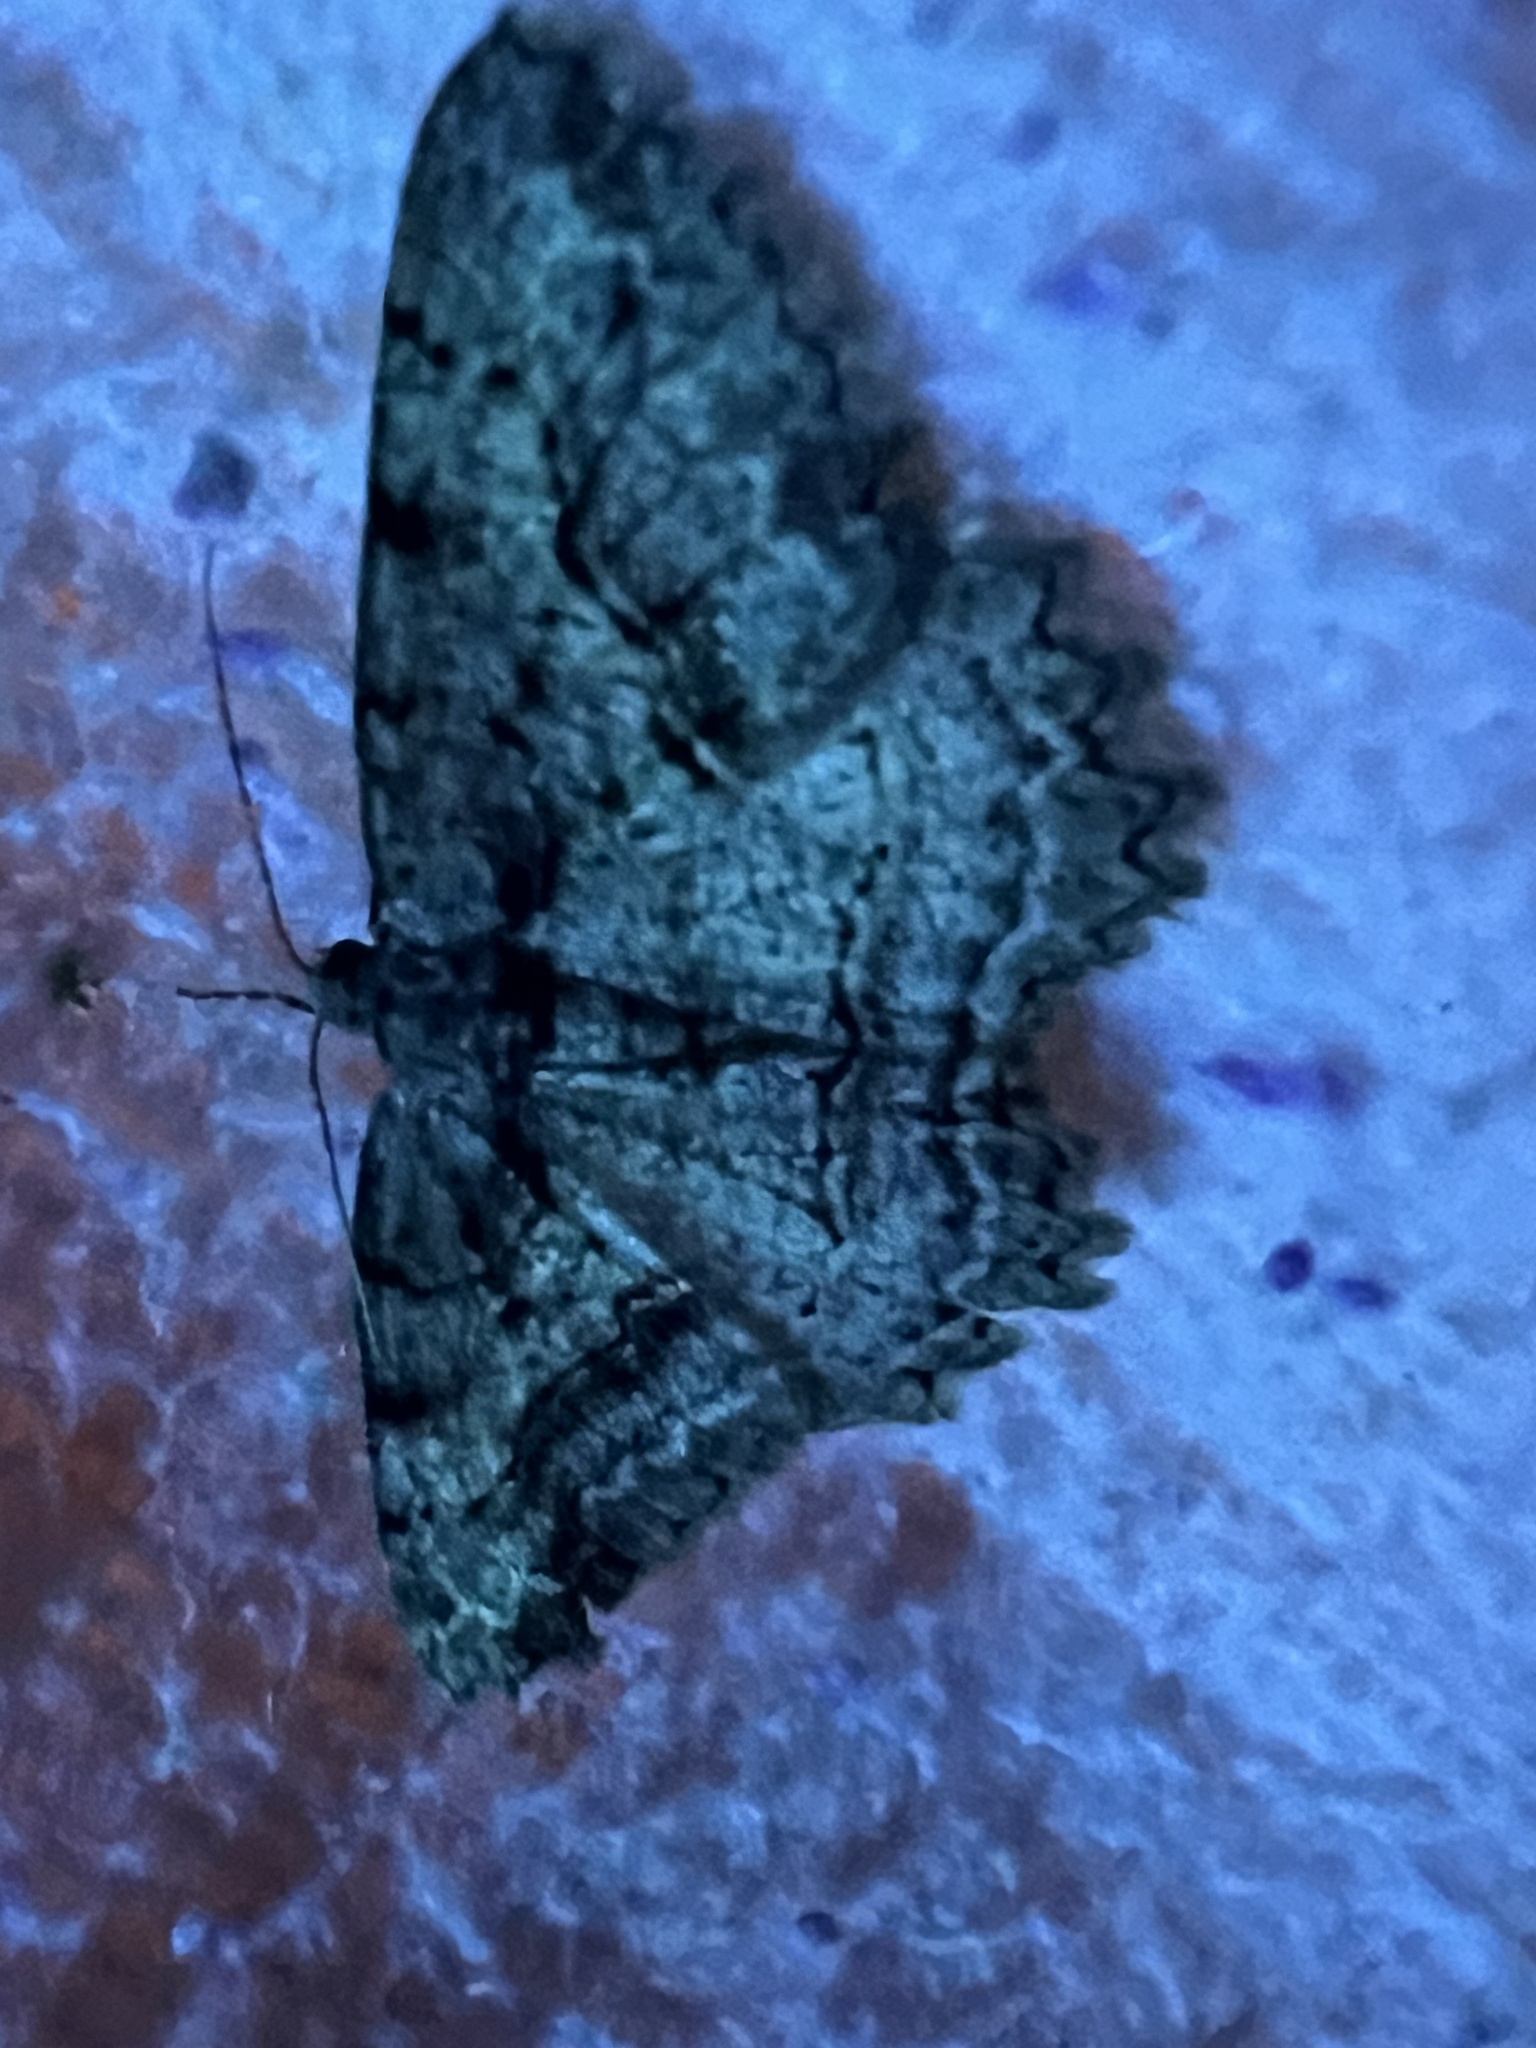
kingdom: Animalia
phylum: Arthropoda
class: Insecta
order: Lepidoptera
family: Geometridae
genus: Neoalcis
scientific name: Neoalcis californiaria
